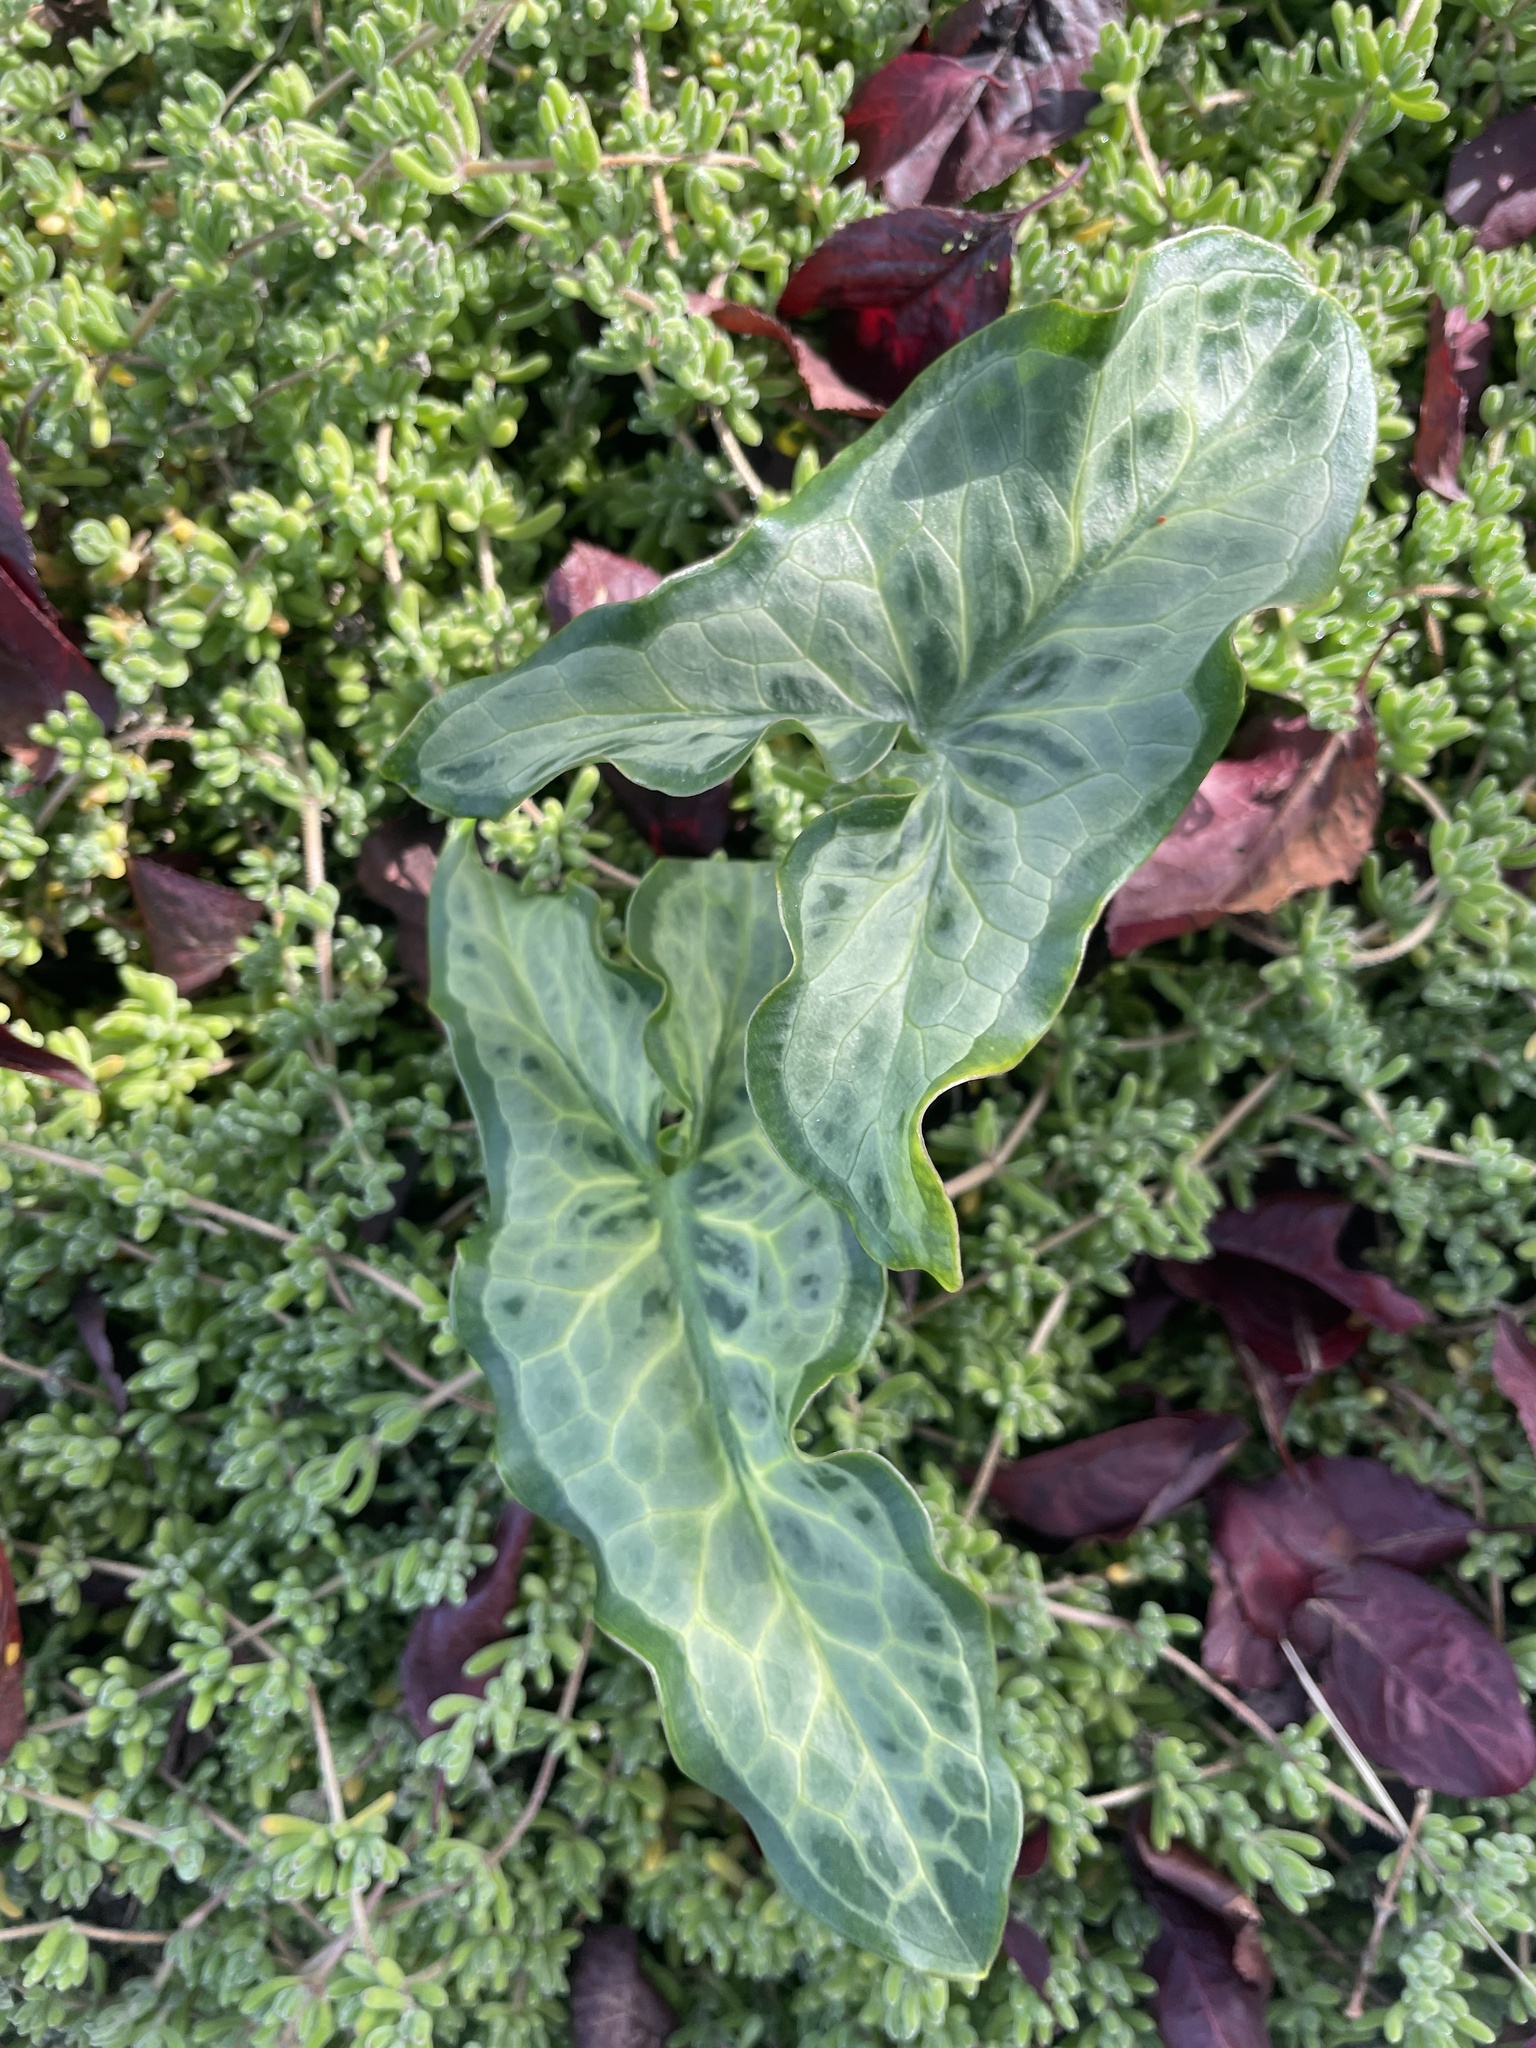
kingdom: Plantae
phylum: Tracheophyta
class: Liliopsida
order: Alismatales
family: Araceae
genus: Arum
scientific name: Arum italicum
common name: Italian lords-and-ladies
